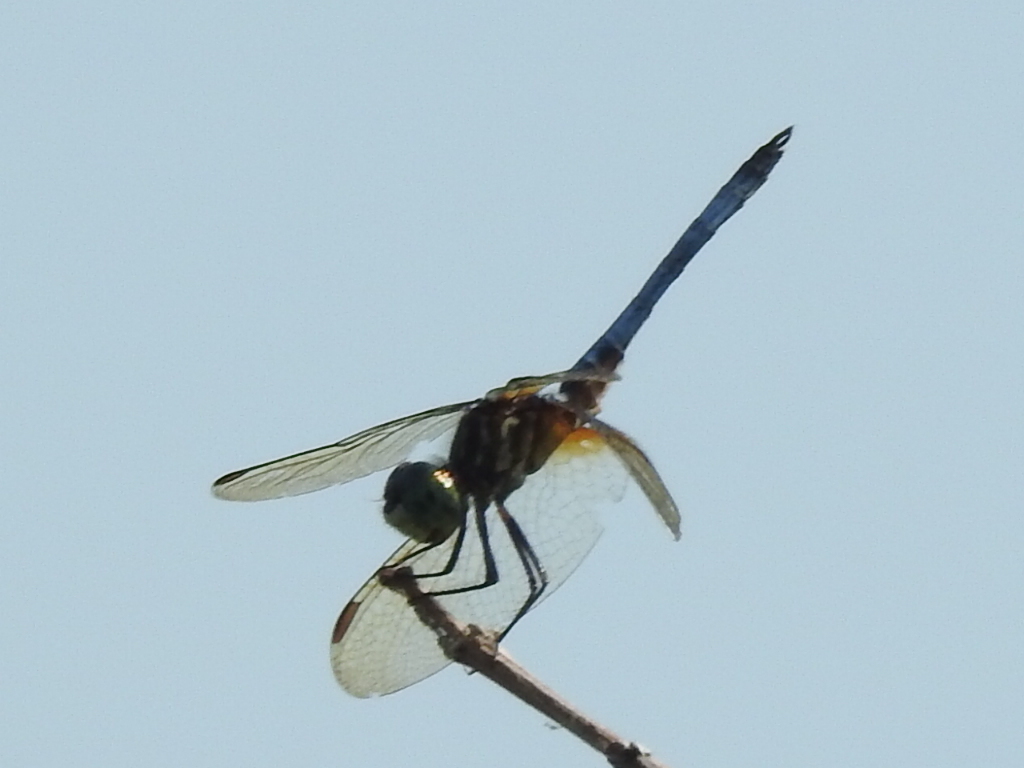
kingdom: Animalia
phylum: Arthropoda
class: Insecta
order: Odonata
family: Libellulidae
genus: Pachydiplax
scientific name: Pachydiplax longipennis
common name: Blue dasher
